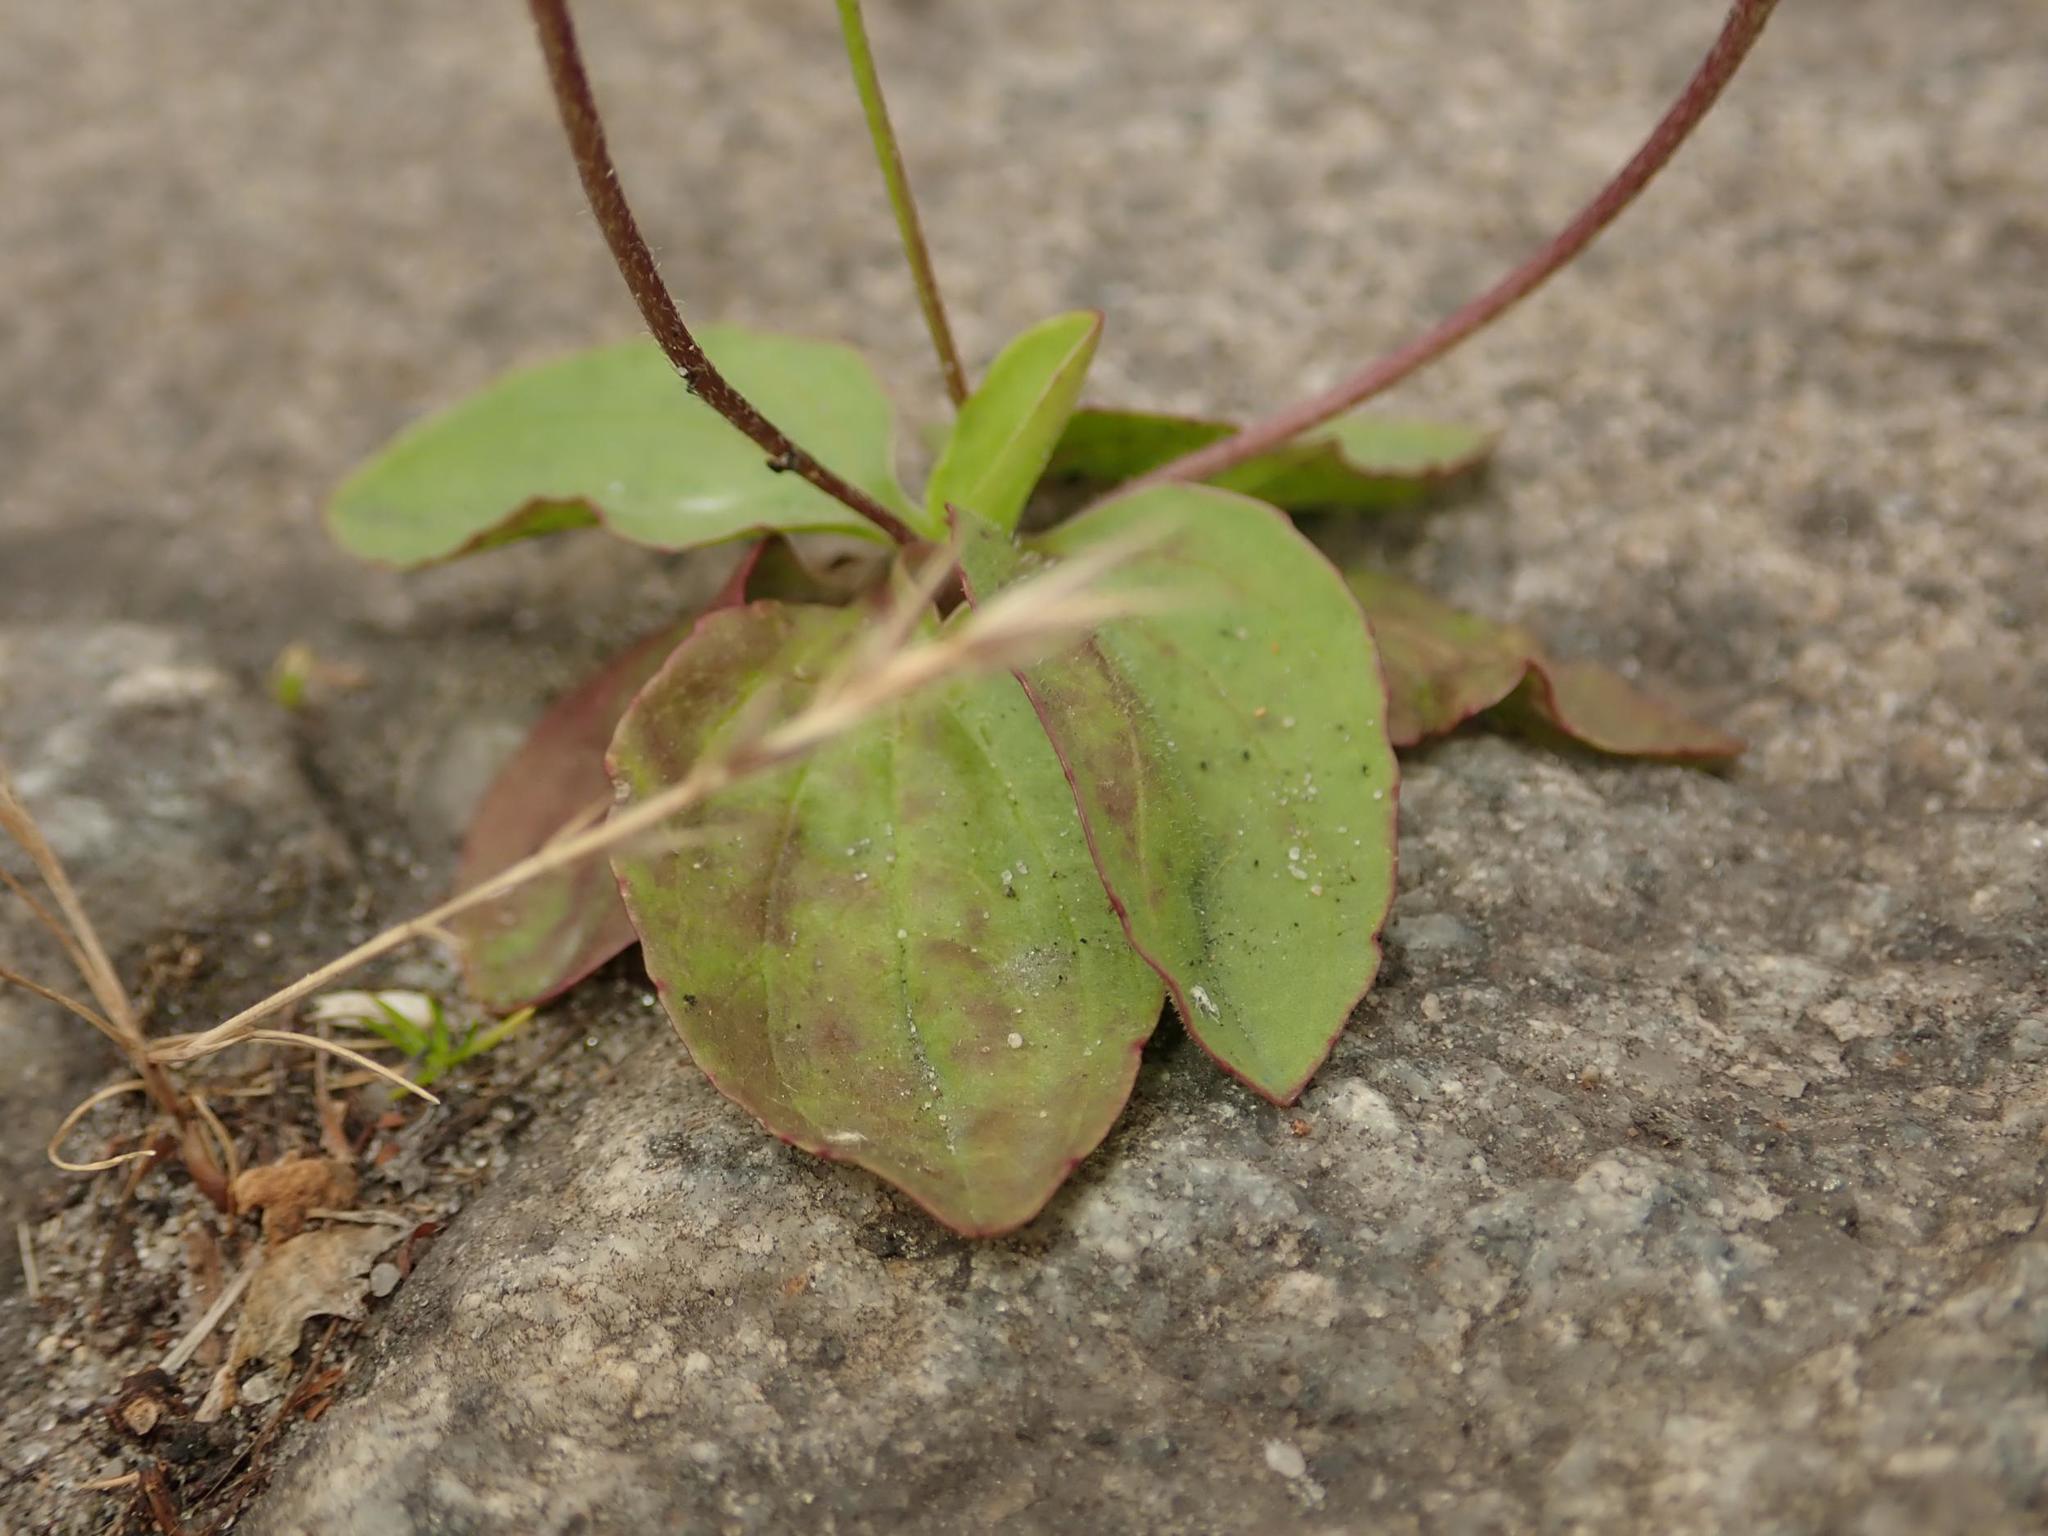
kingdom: Plantae
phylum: Tracheophyta
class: Magnoliopsida
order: Lamiales
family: Plantaginaceae
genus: Plantago
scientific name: Plantago major
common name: Common plantain
